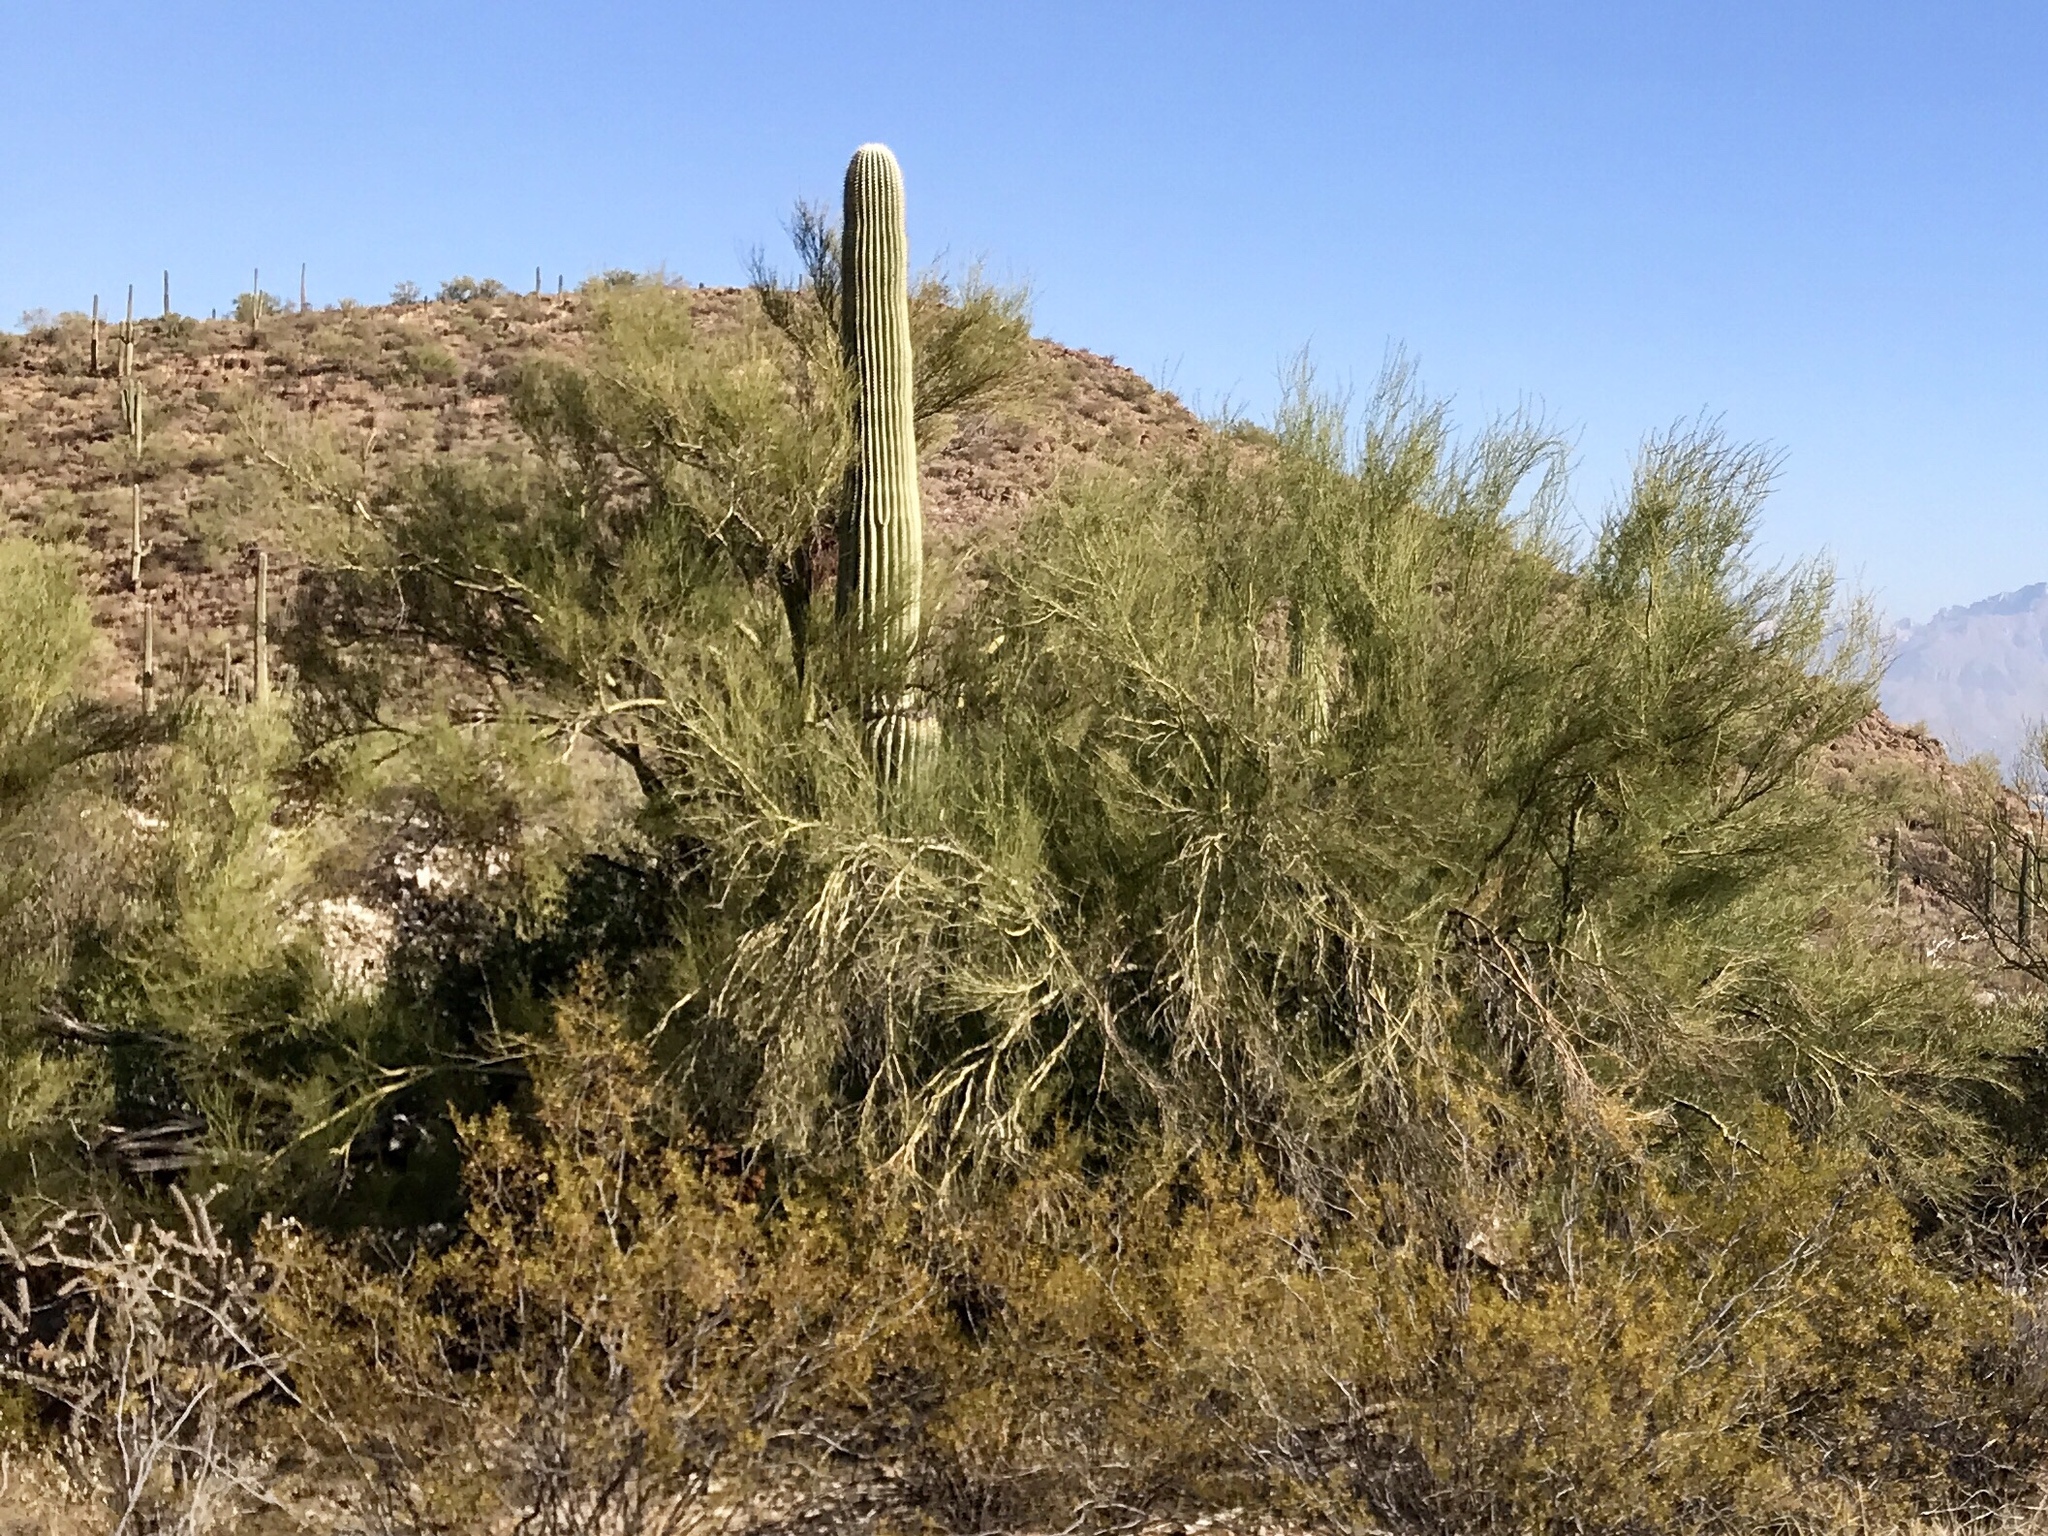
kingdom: Plantae
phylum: Tracheophyta
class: Magnoliopsida
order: Fabales
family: Fabaceae
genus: Parkinsonia
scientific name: Parkinsonia microphylla
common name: Yellow paloverde
